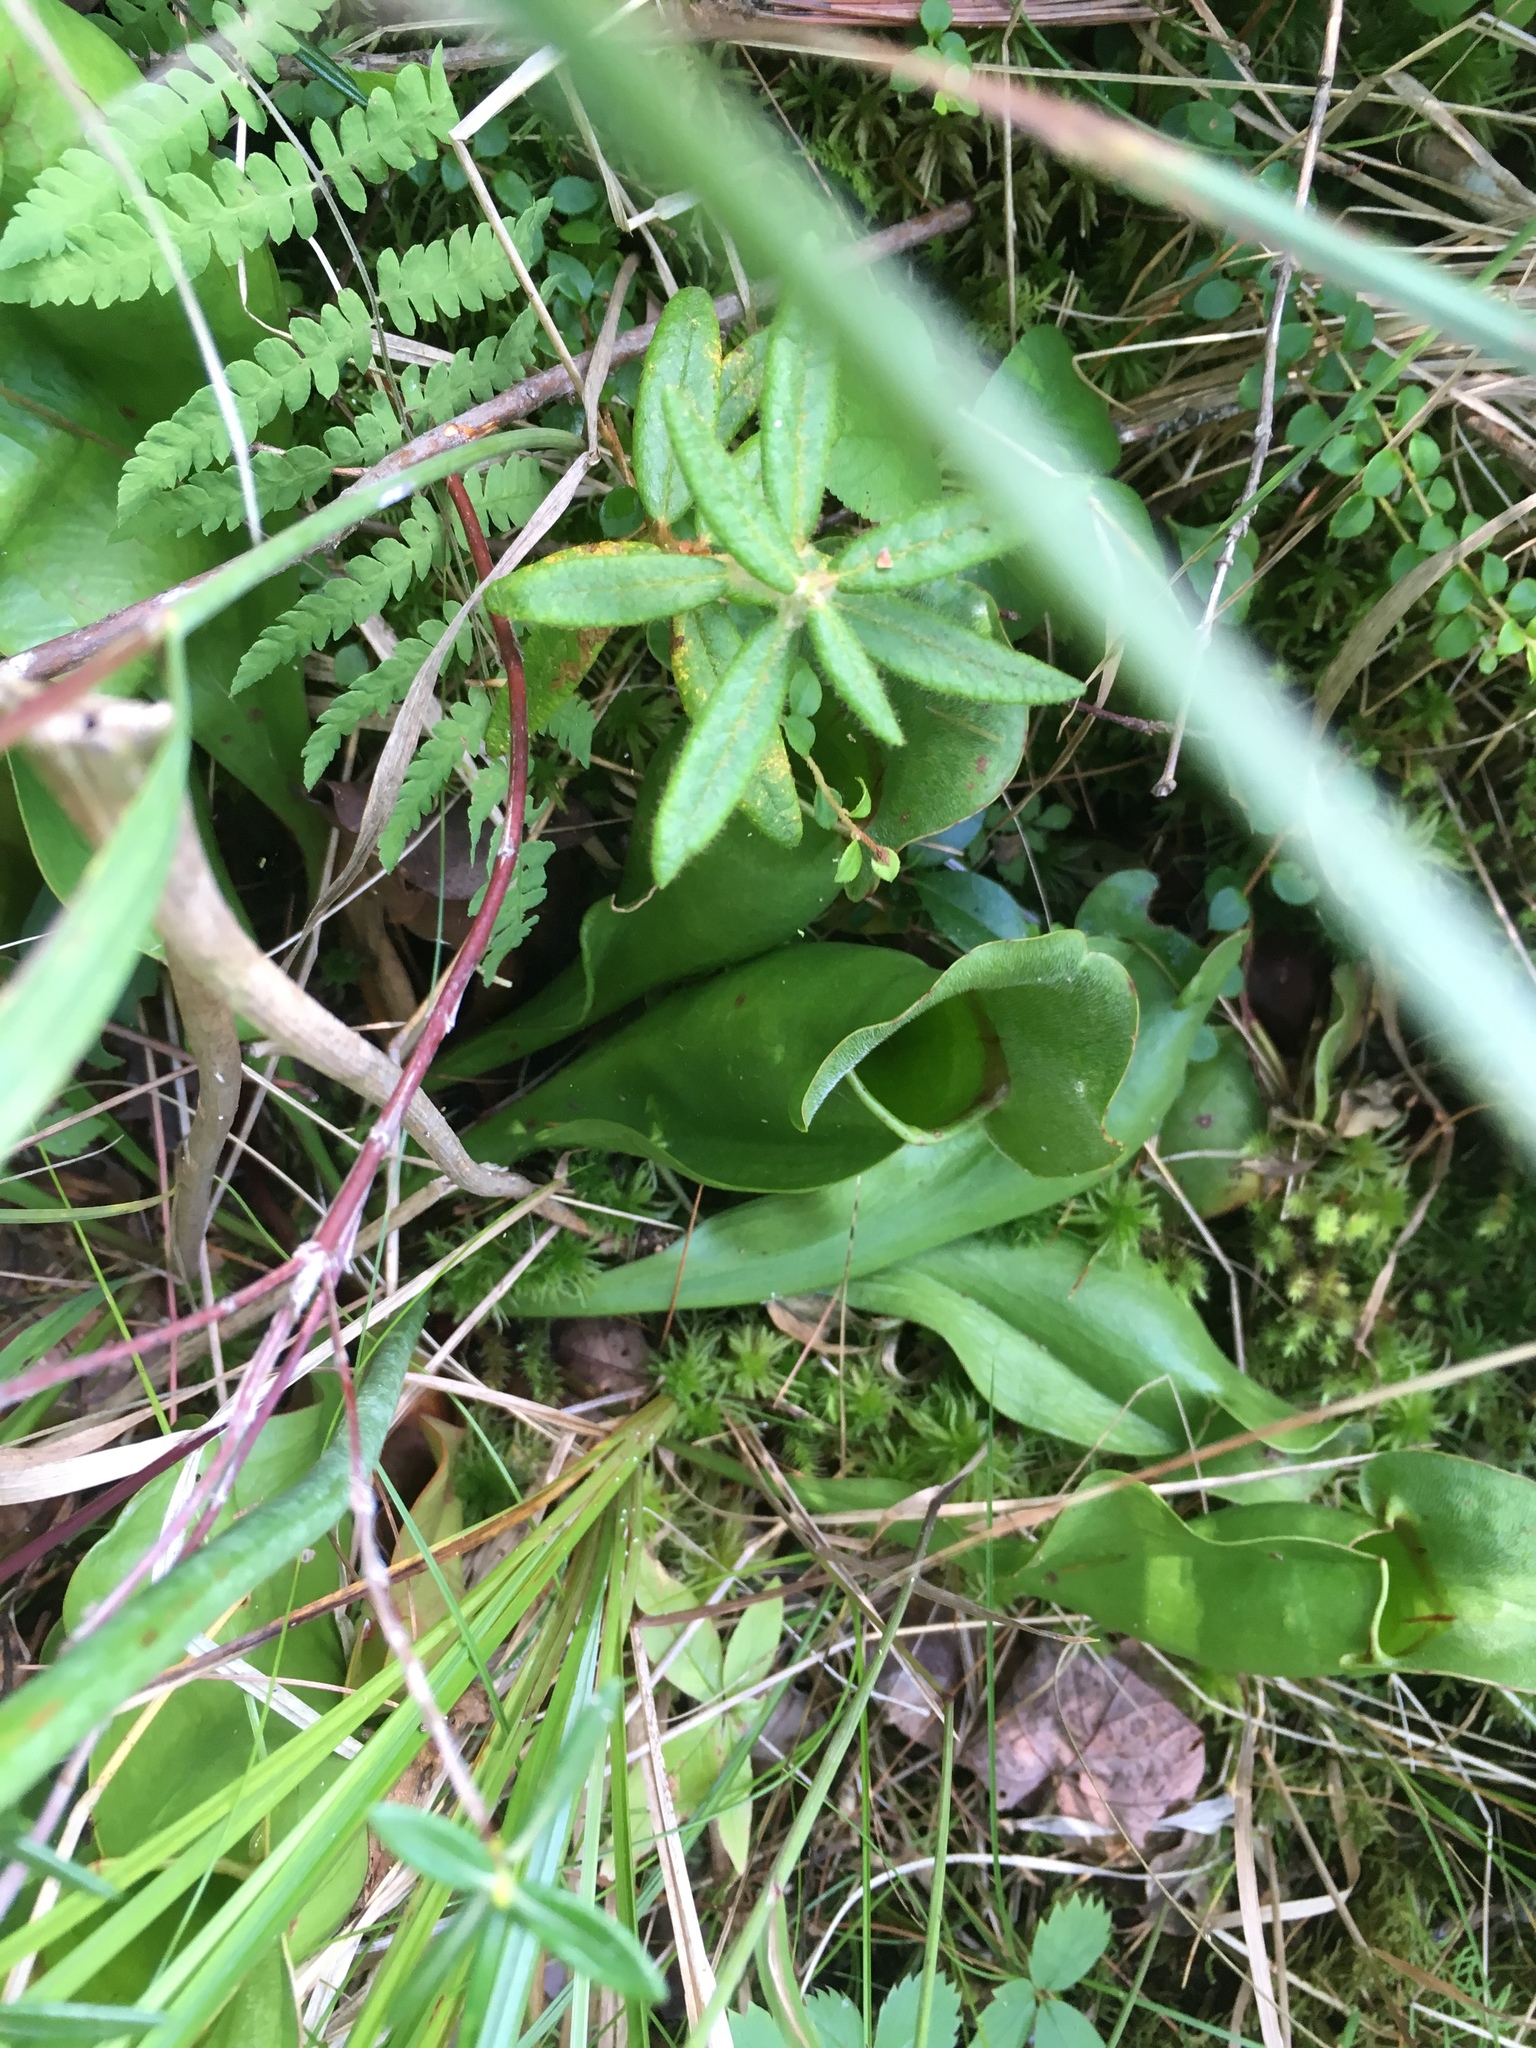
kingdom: Plantae
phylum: Tracheophyta
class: Magnoliopsida
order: Ericales
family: Sarraceniaceae
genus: Sarracenia
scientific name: Sarracenia purpurea
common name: Pitcherplant
